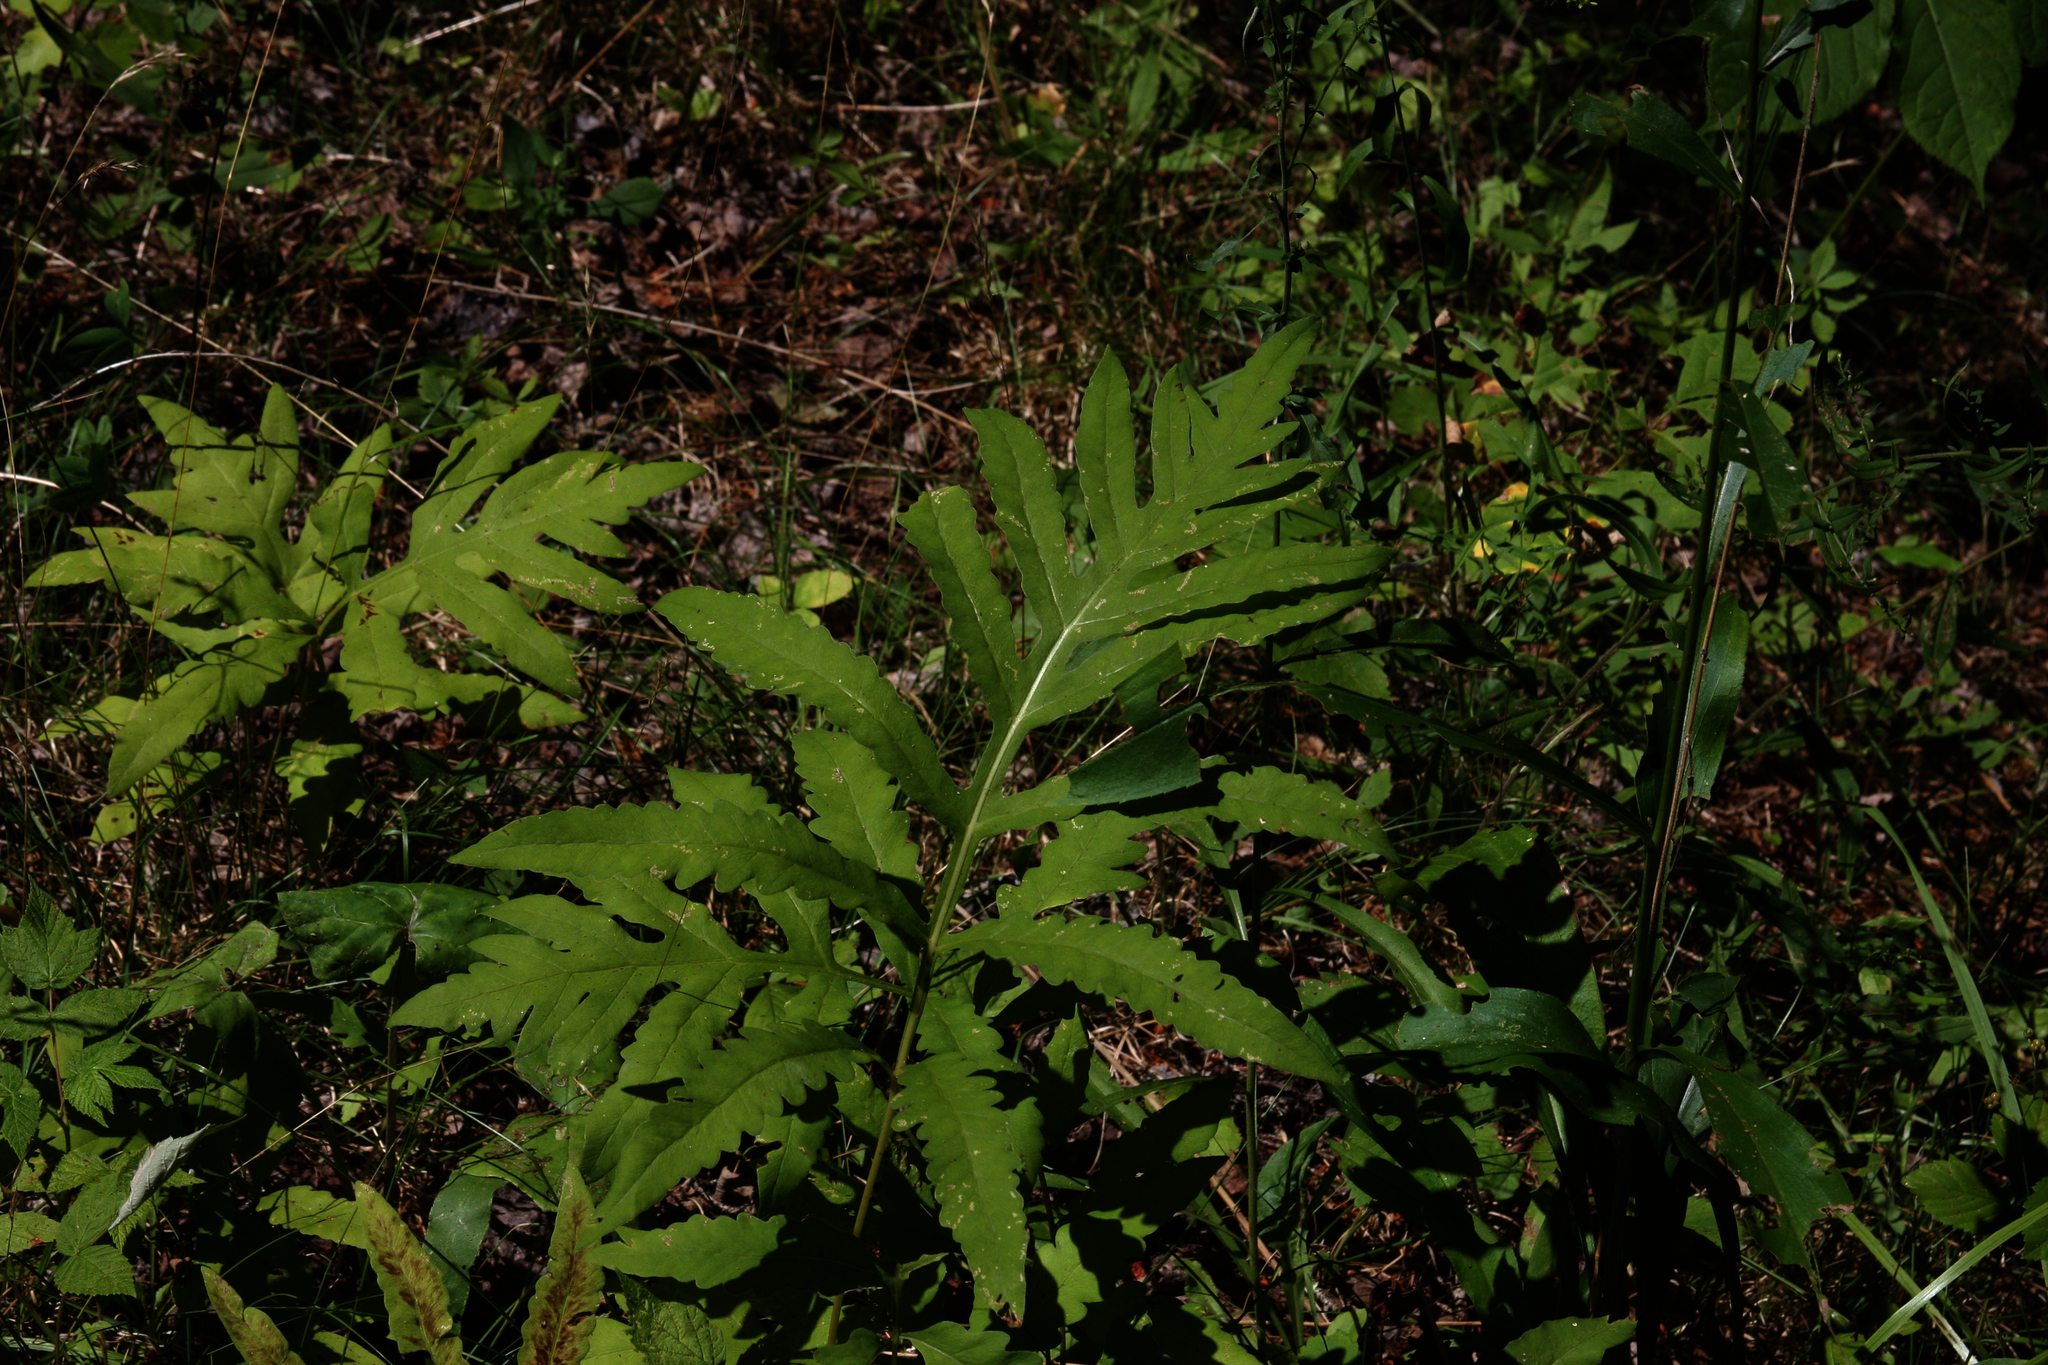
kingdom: Plantae
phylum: Tracheophyta
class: Polypodiopsida
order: Polypodiales
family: Onocleaceae
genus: Onoclea
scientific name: Onoclea sensibilis
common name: Sensitive fern
